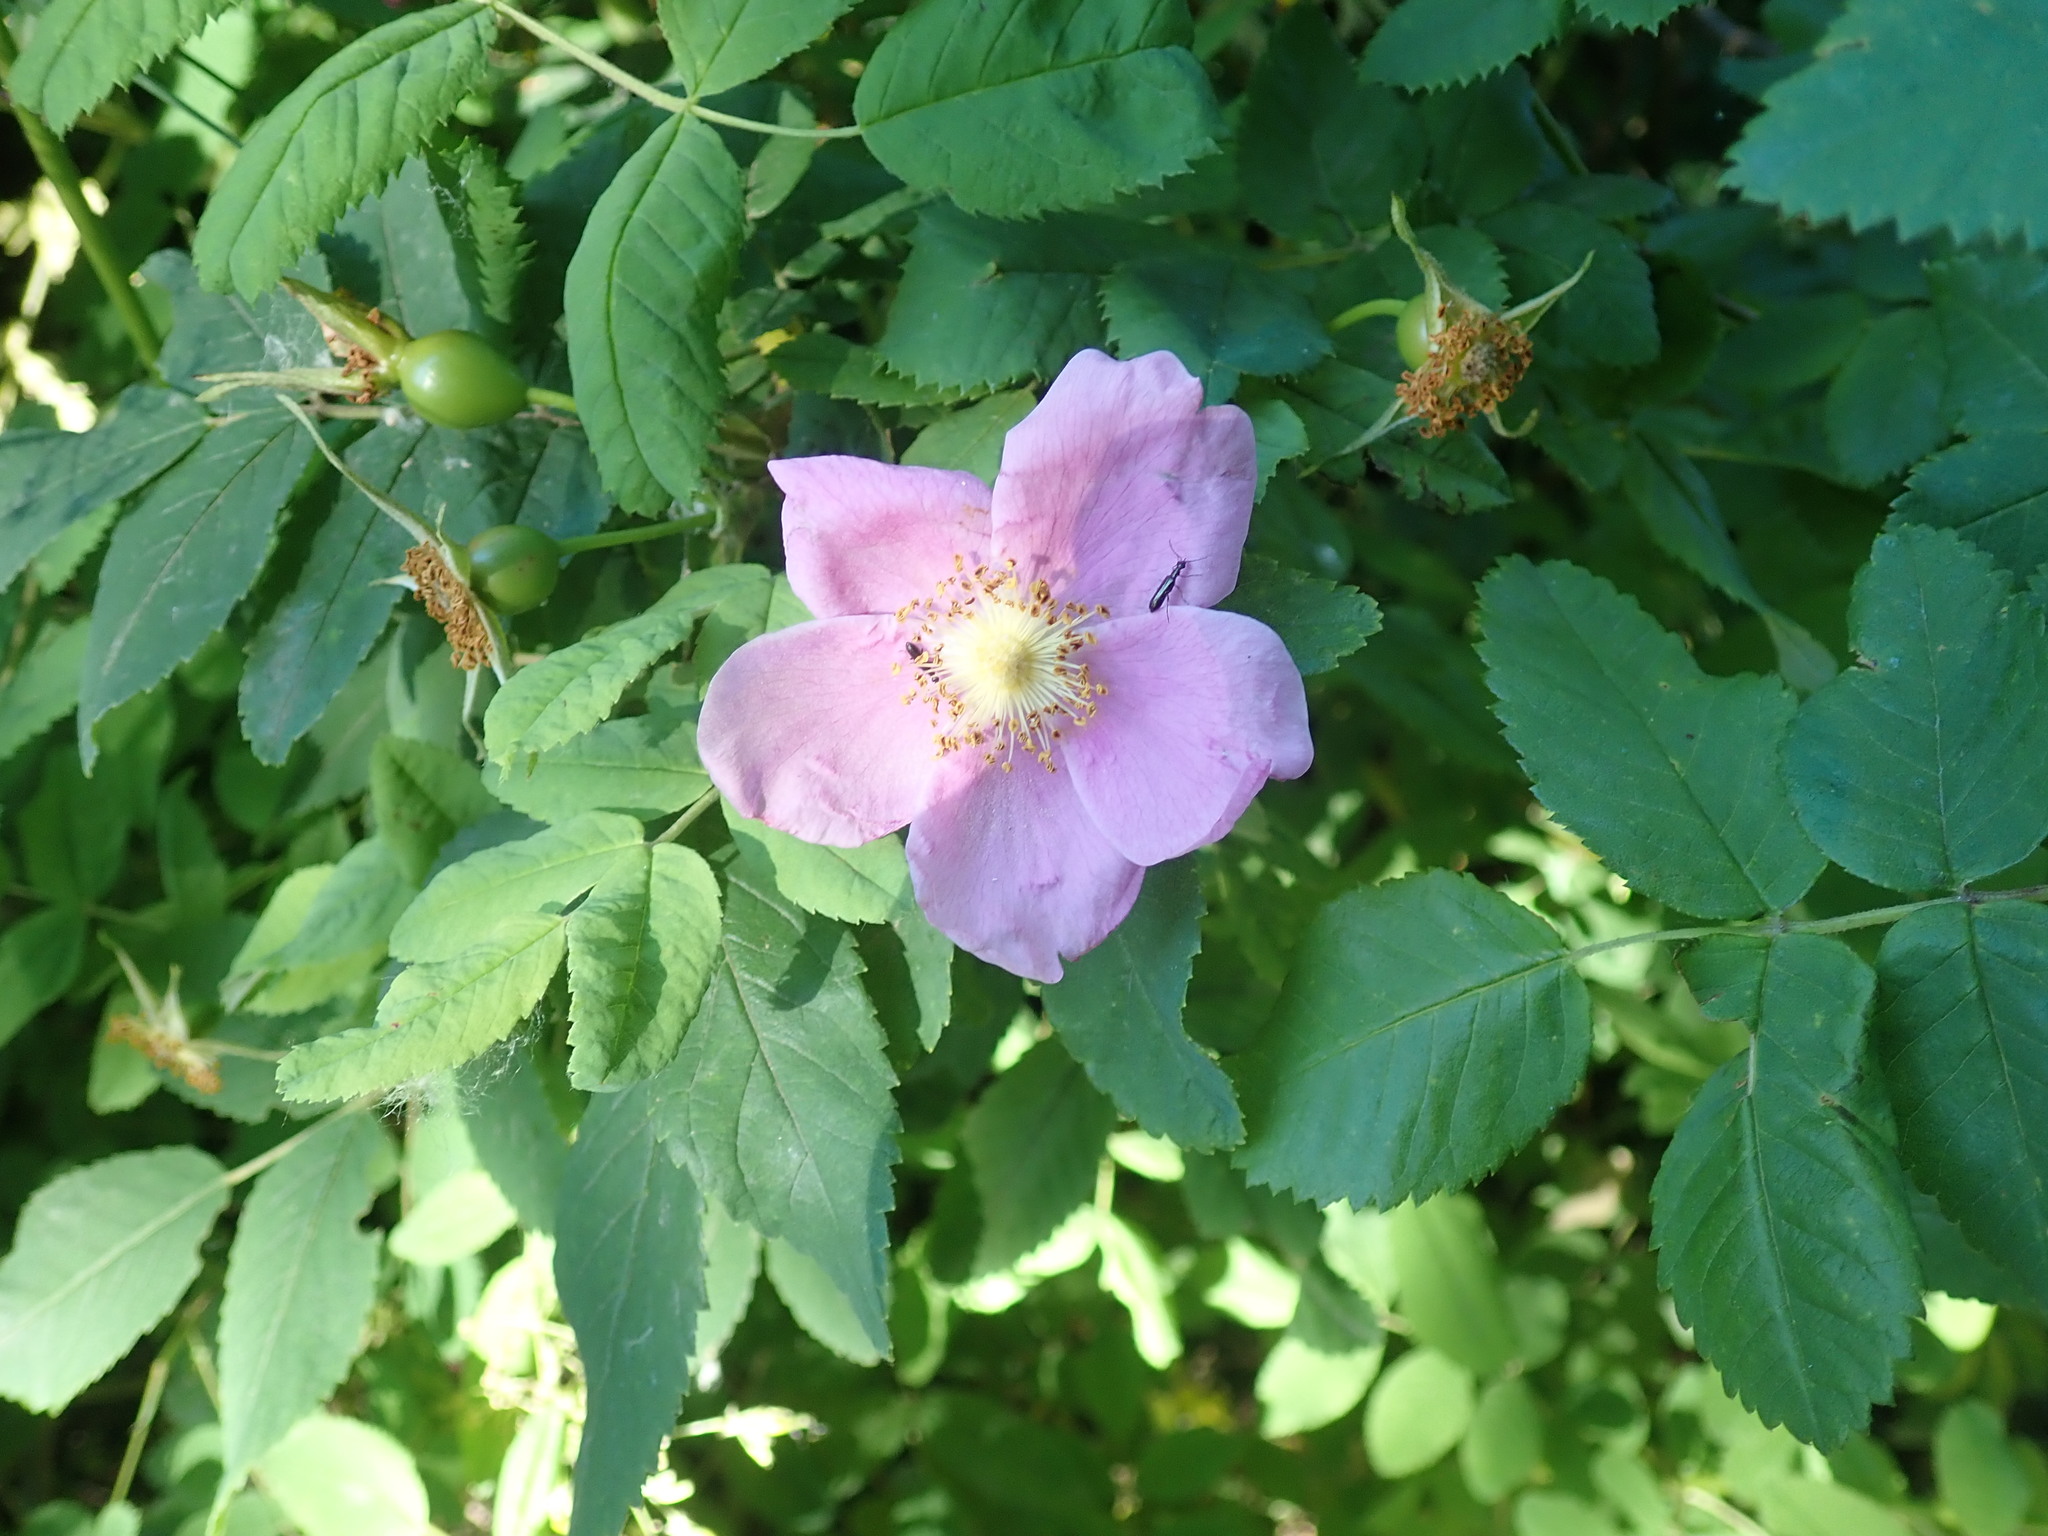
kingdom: Plantae
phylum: Tracheophyta
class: Magnoliopsida
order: Rosales
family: Rosaceae
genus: Rosa
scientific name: Rosa nutkana
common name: Nootka rose
